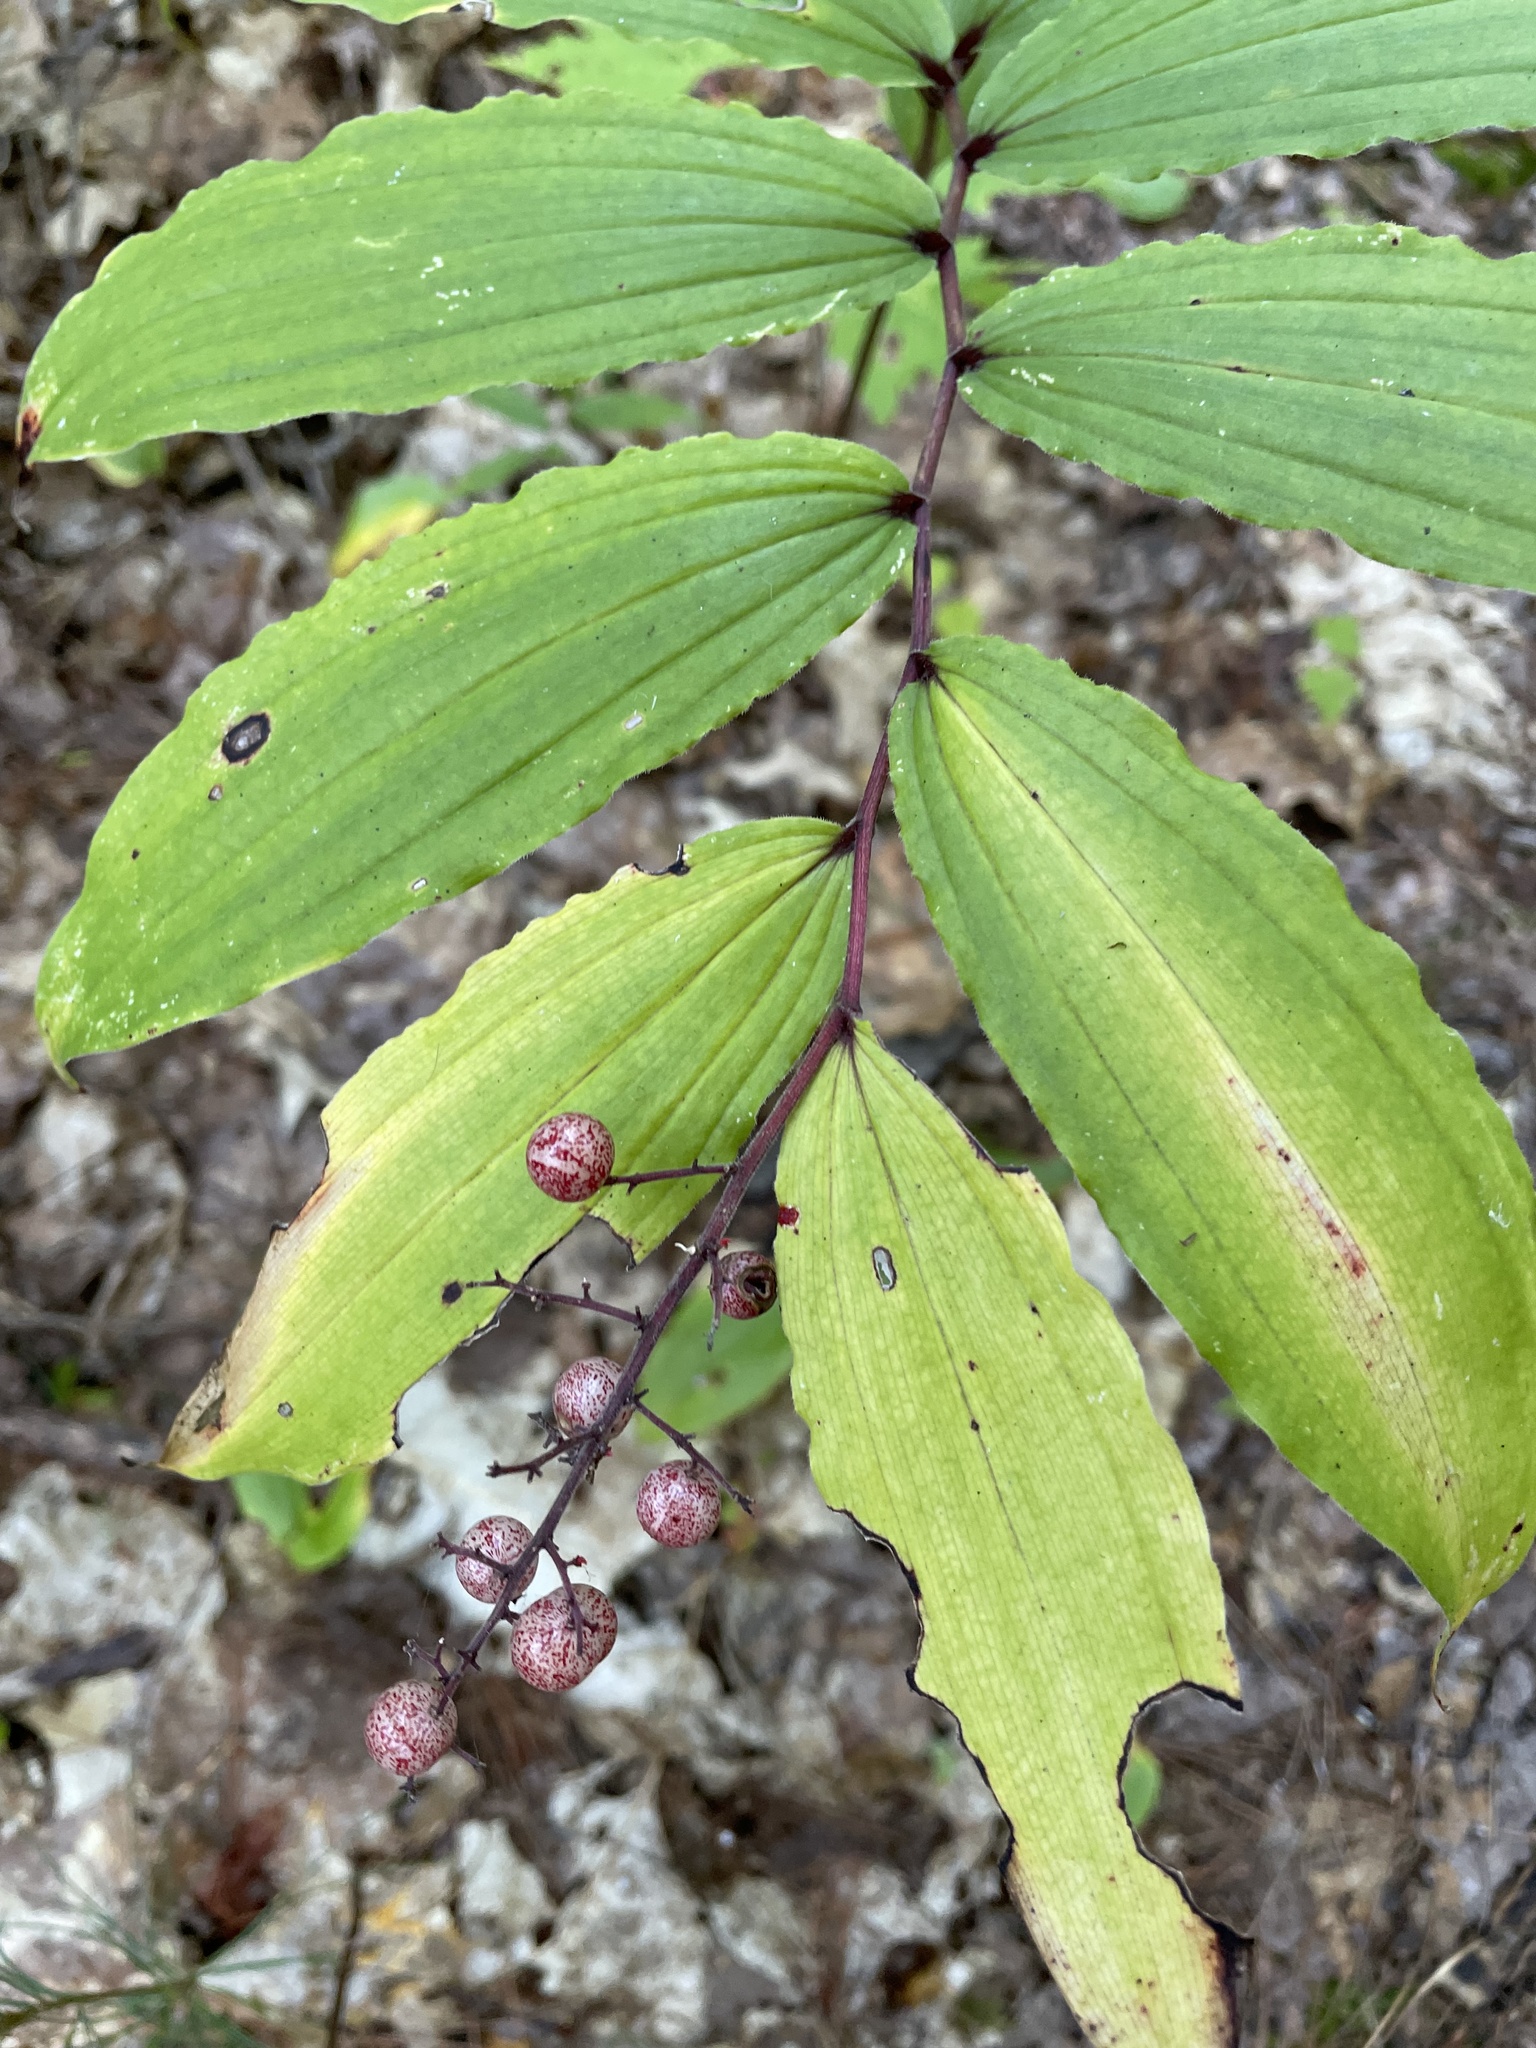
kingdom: Plantae
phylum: Tracheophyta
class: Liliopsida
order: Asparagales
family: Asparagaceae
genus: Maianthemum
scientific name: Maianthemum racemosum
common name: False spikenard
